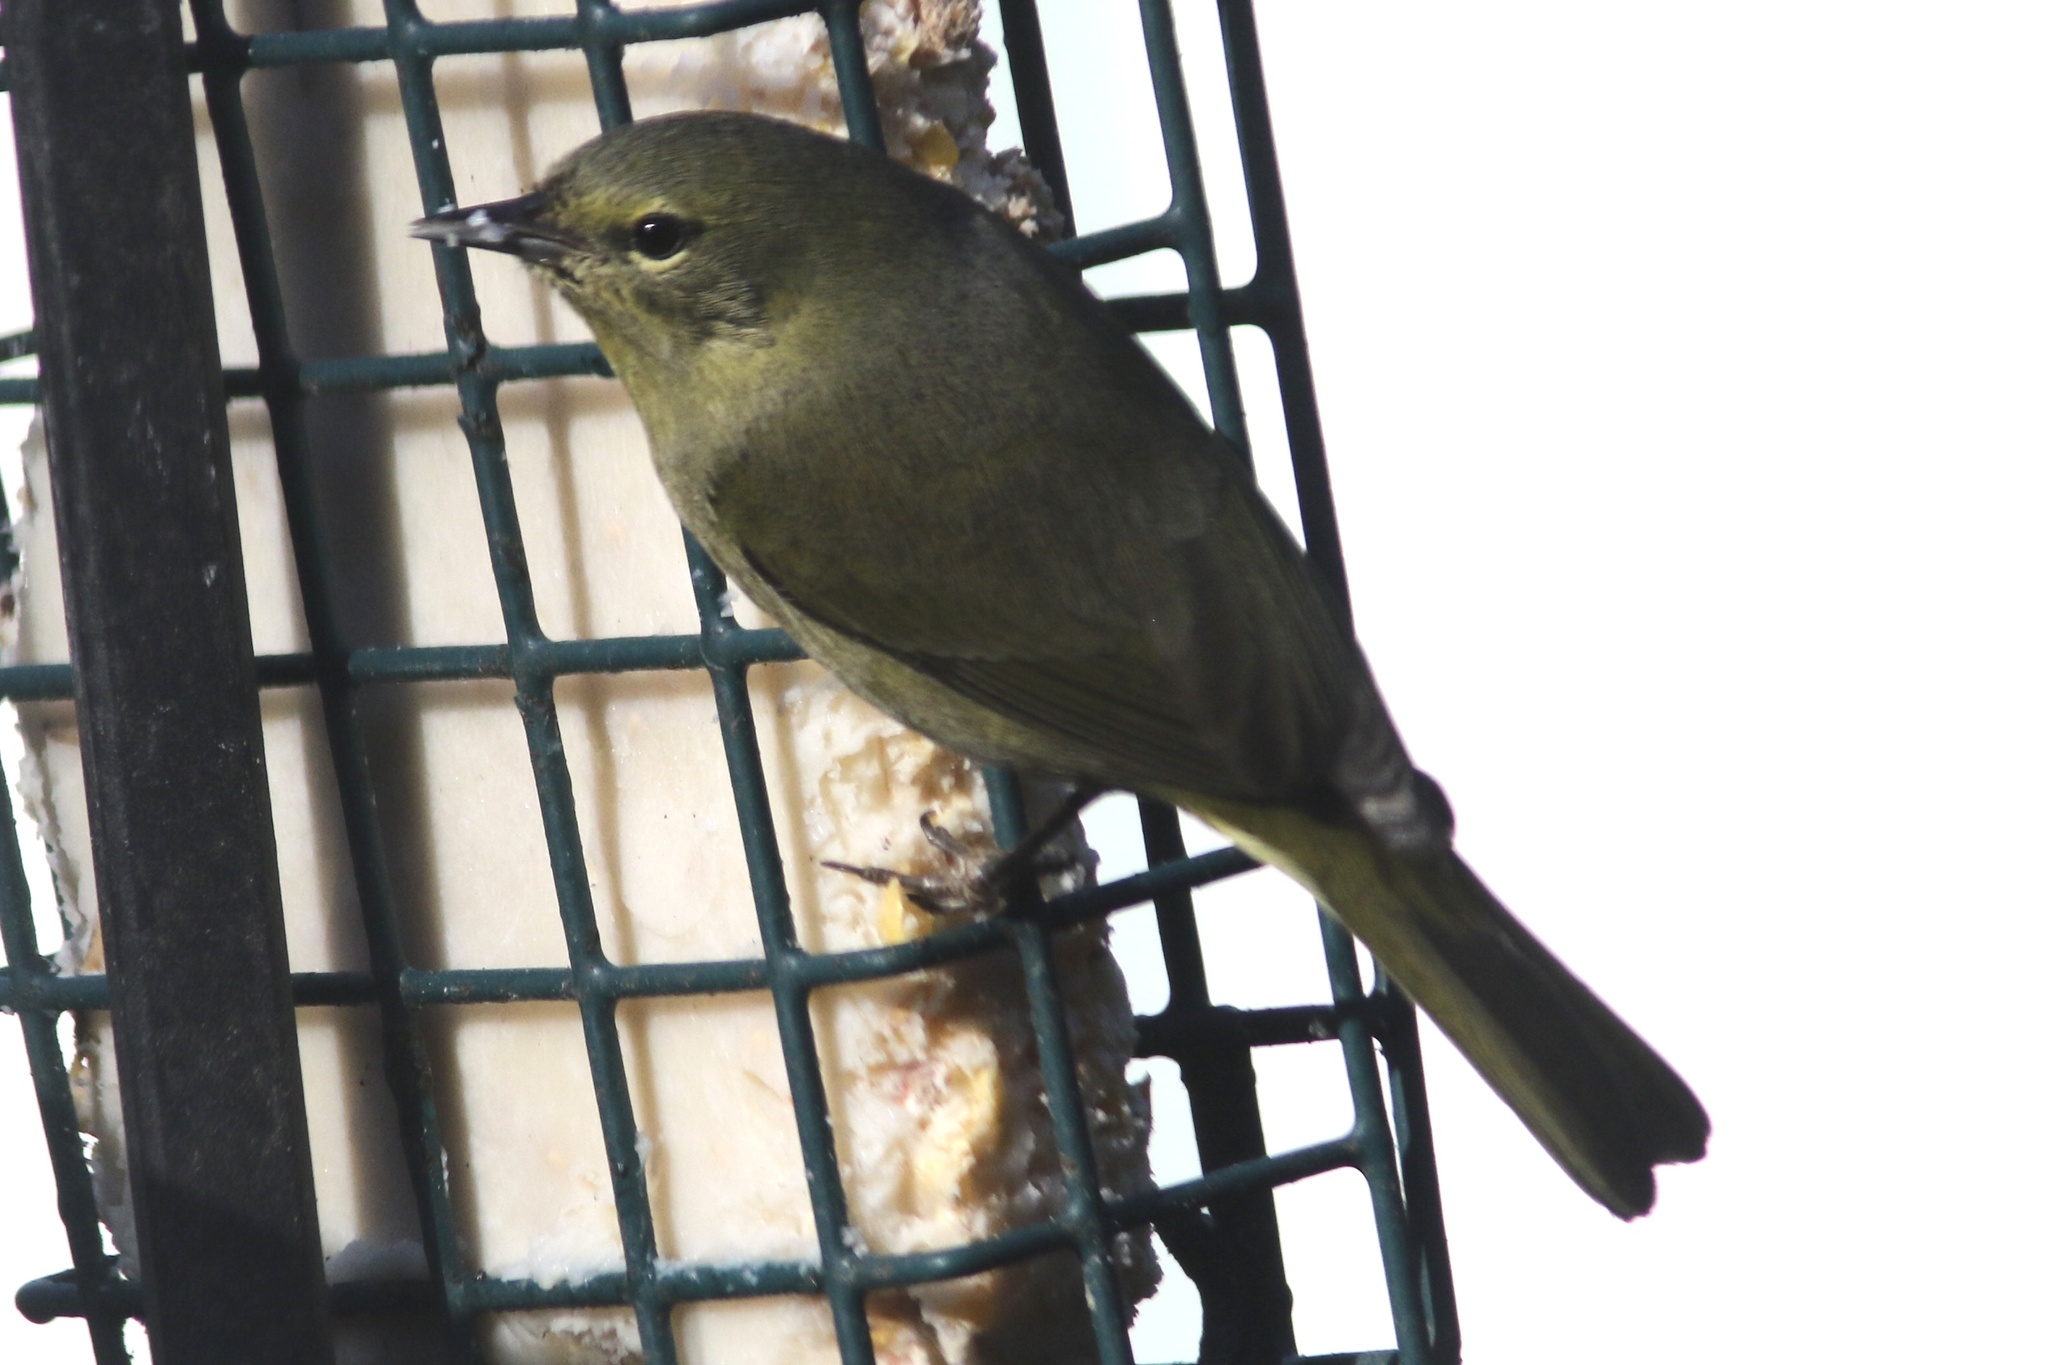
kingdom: Animalia
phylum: Chordata
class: Aves
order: Passeriformes
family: Parulidae
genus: Leiothlypis
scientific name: Leiothlypis celata
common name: Orange-crowned warbler
